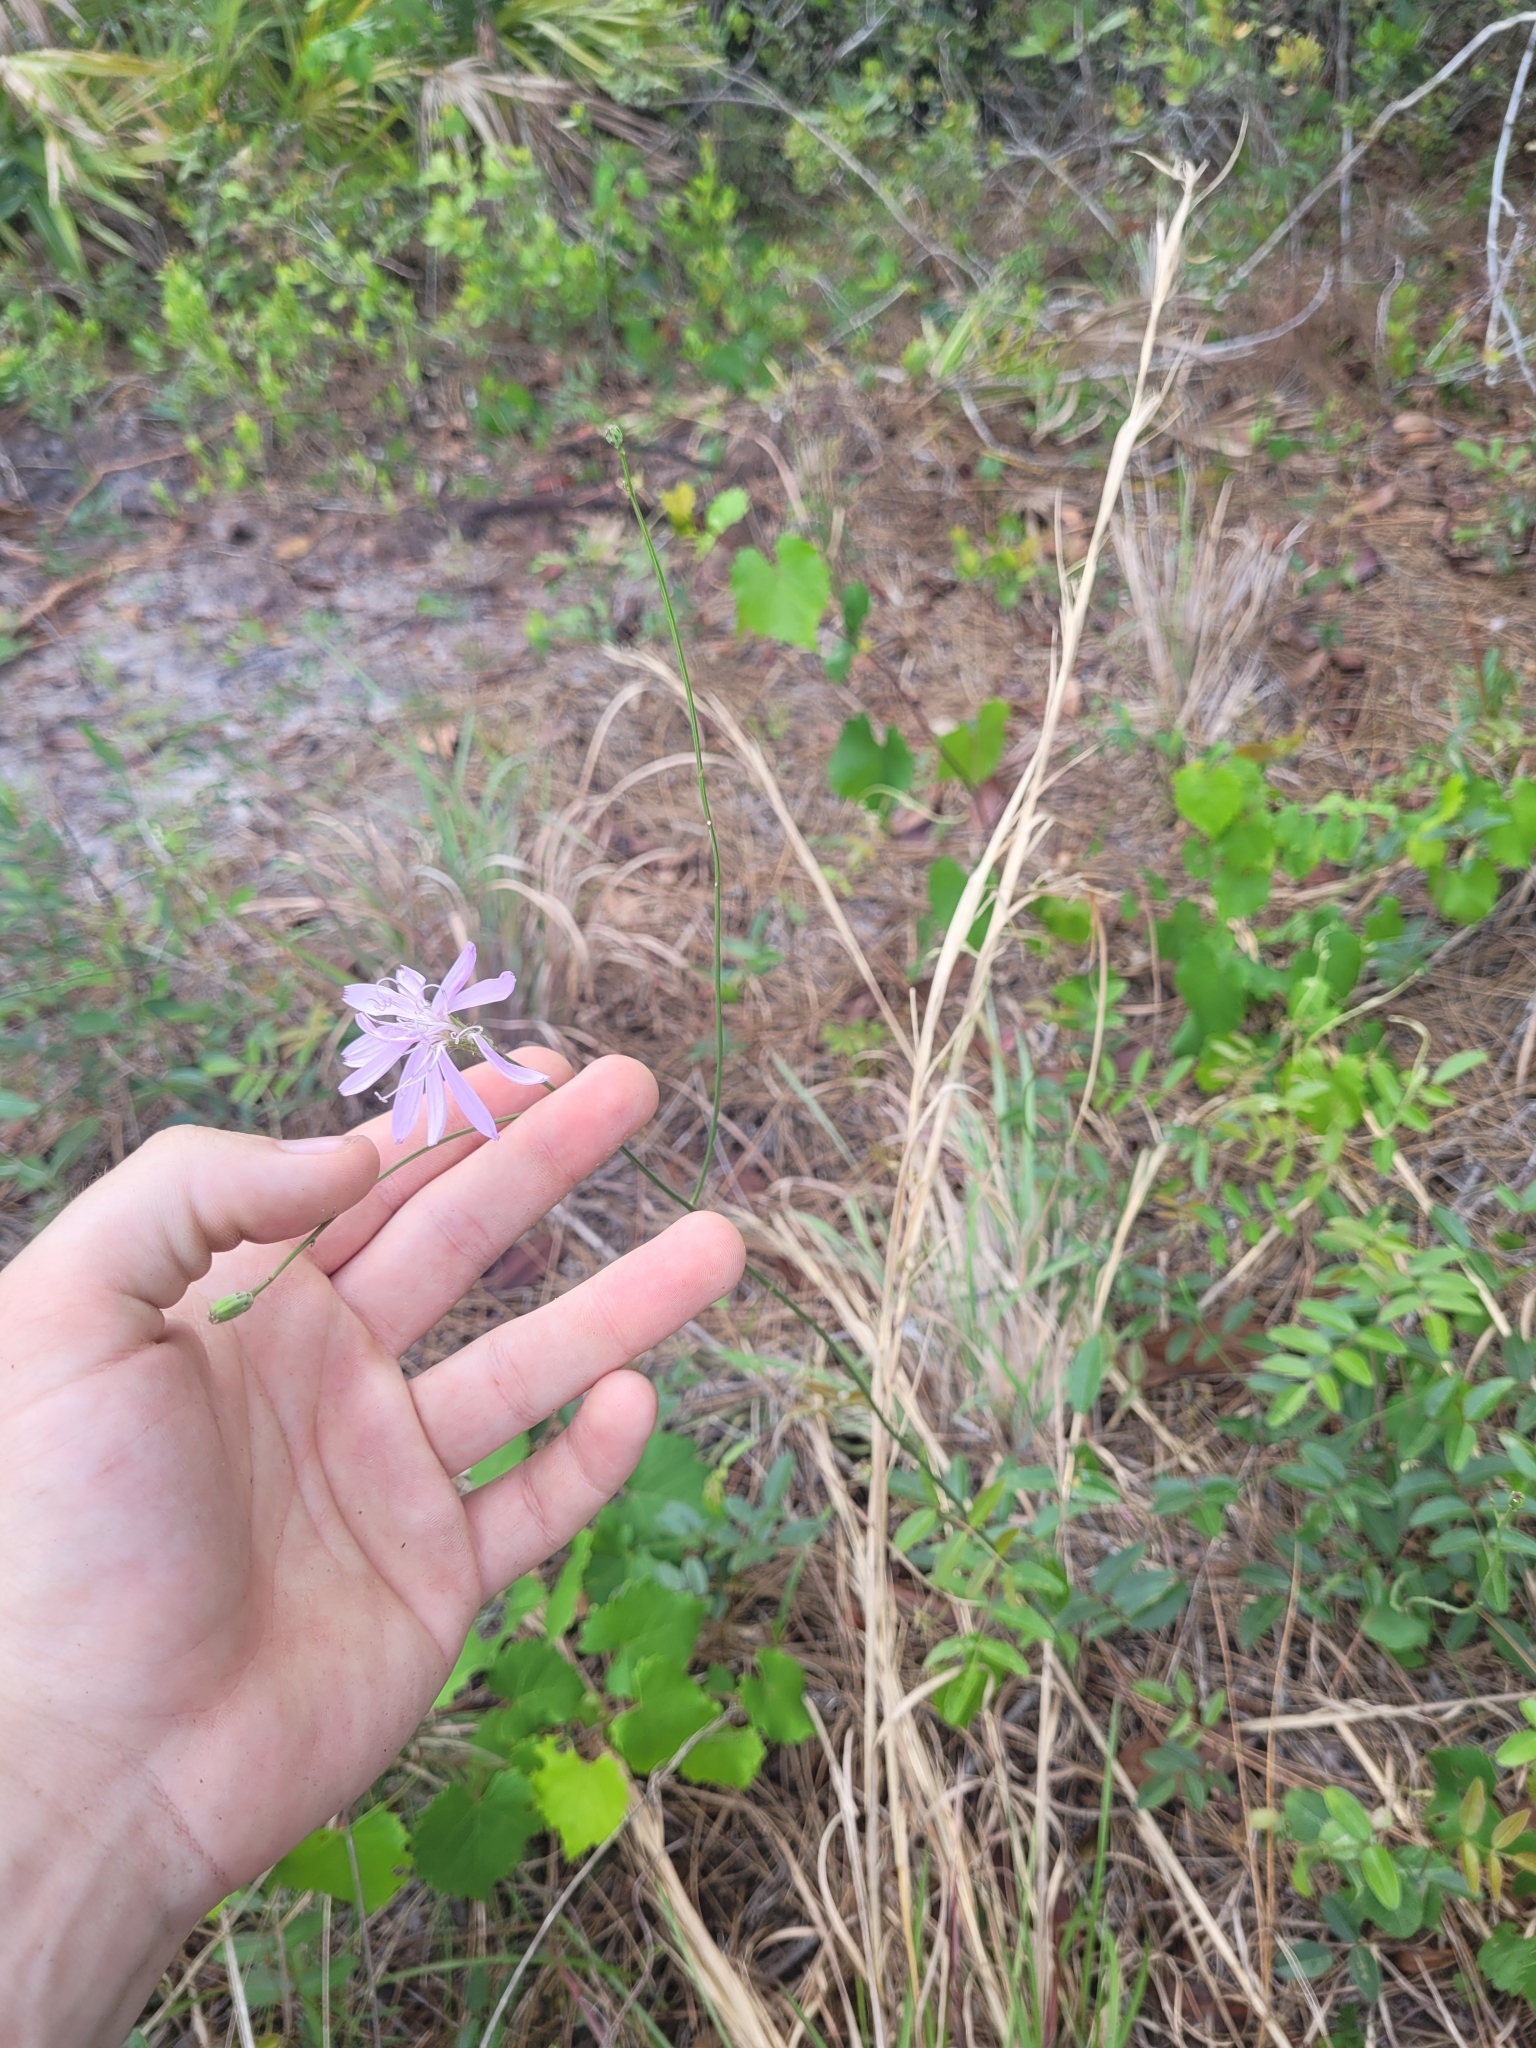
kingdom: Plantae
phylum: Tracheophyta
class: Magnoliopsida
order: Asterales
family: Asteraceae
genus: Lygodesmia
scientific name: Lygodesmia aphylla
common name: Rose-rush
